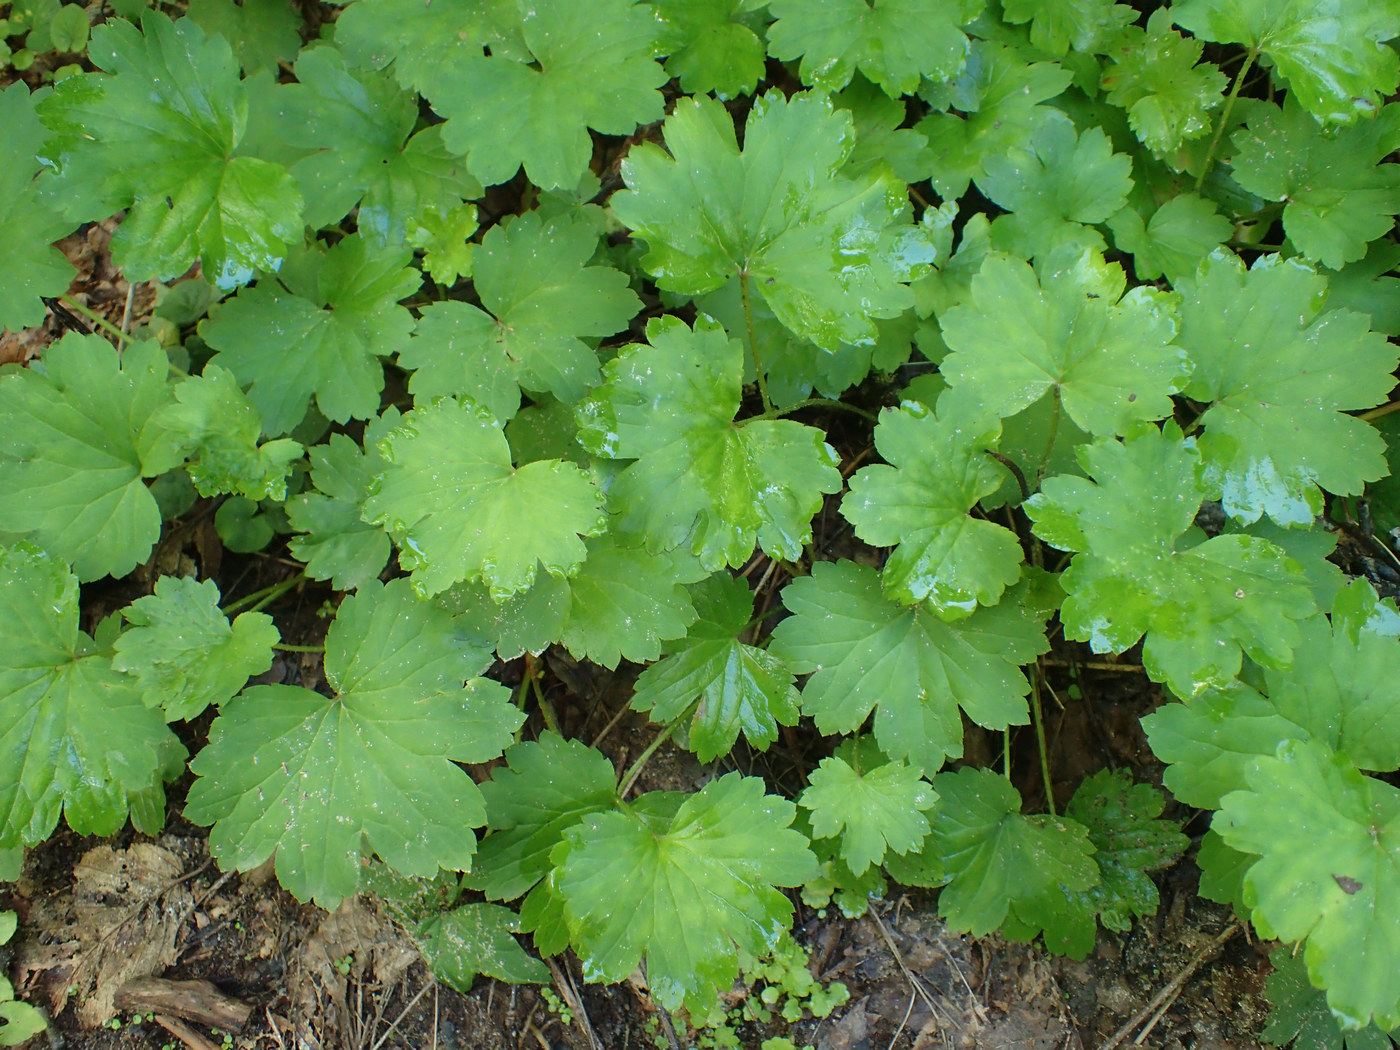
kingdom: Plantae
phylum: Tracheophyta
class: Magnoliopsida
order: Saxifragales
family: Saxifragaceae
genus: Boykinia
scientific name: Boykinia aconitifolia
